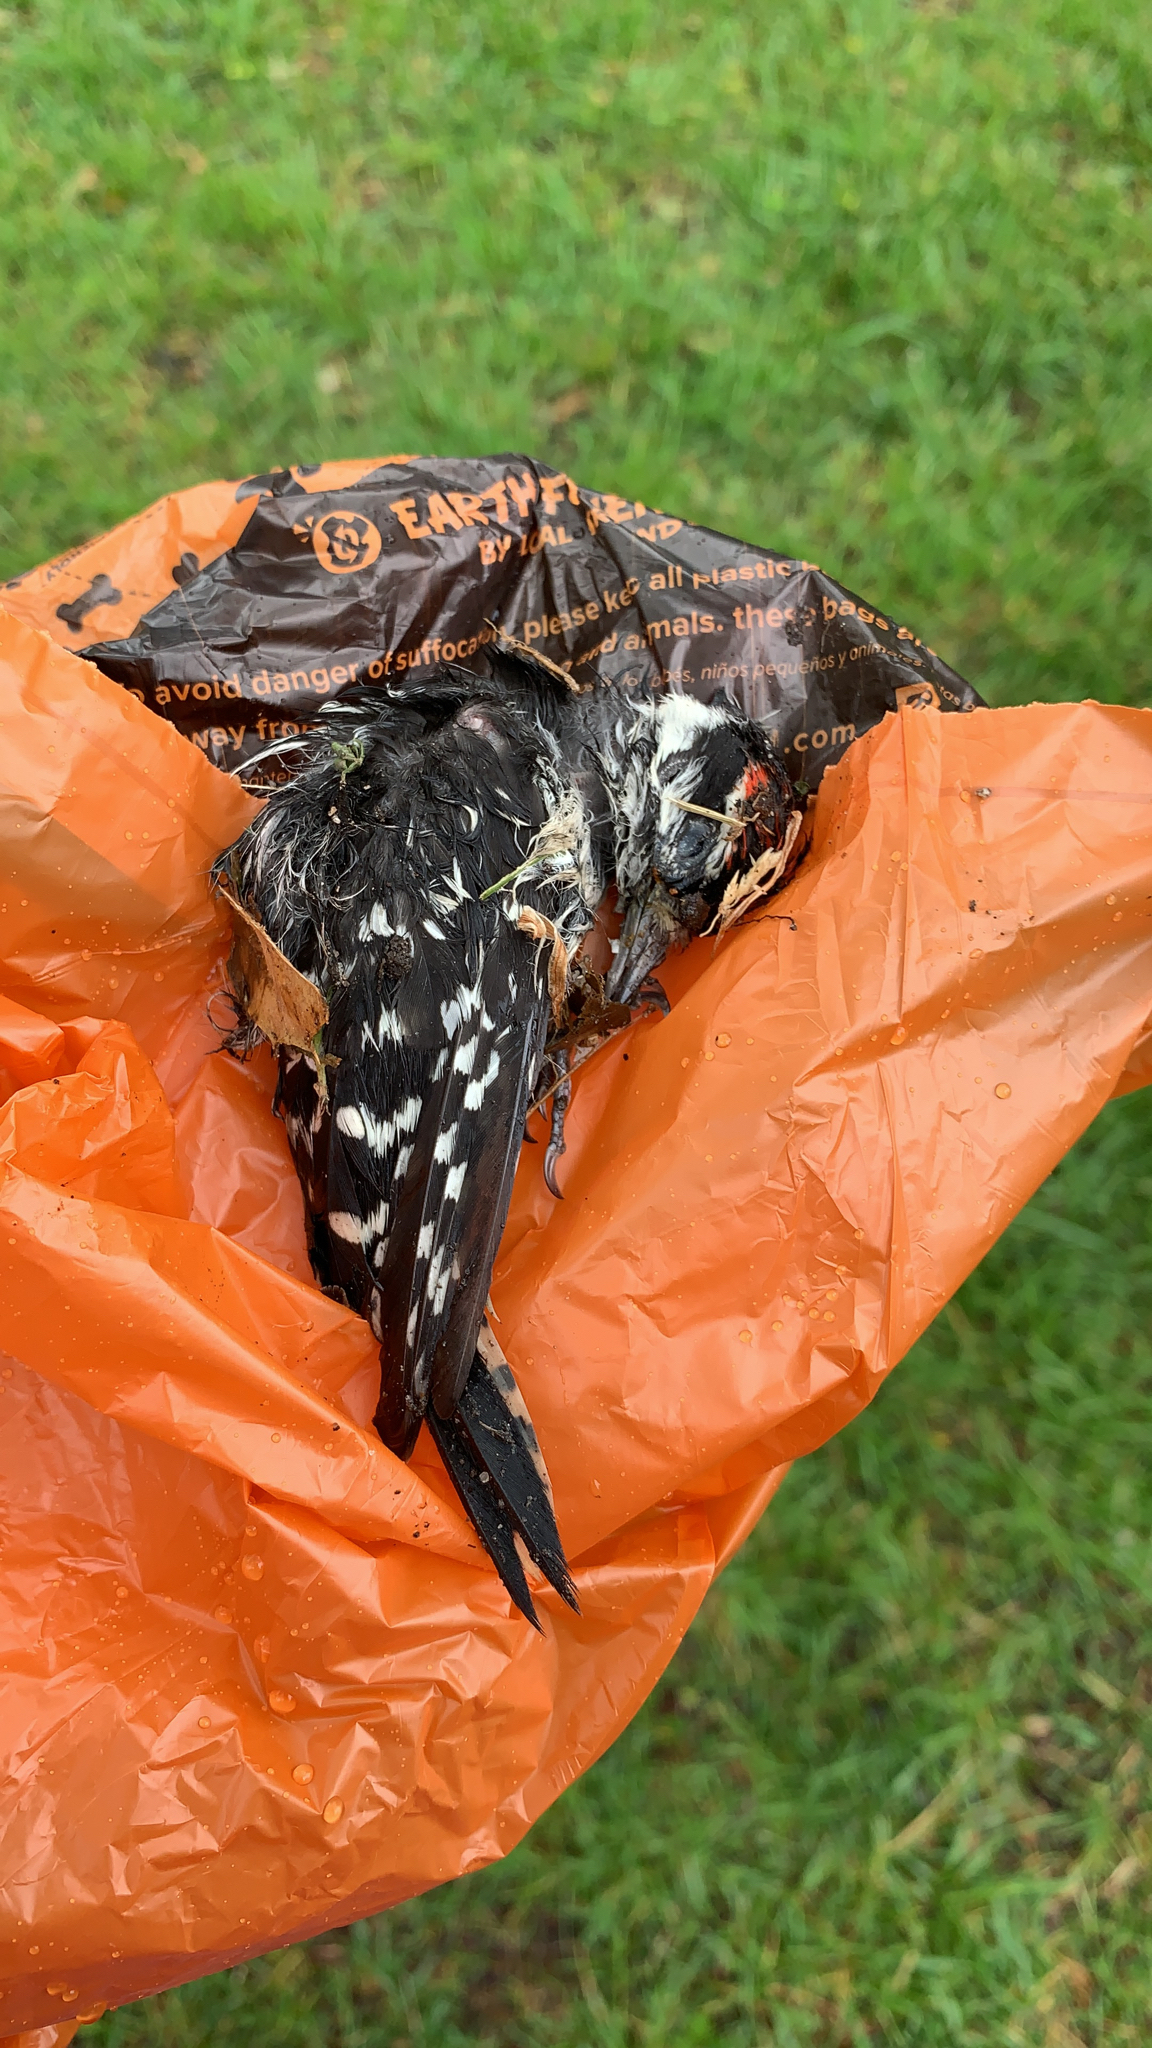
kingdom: Animalia
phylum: Chordata
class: Aves
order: Piciformes
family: Picidae
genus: Dryobates
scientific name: Dryobates pubescens
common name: Downy woodpecker
